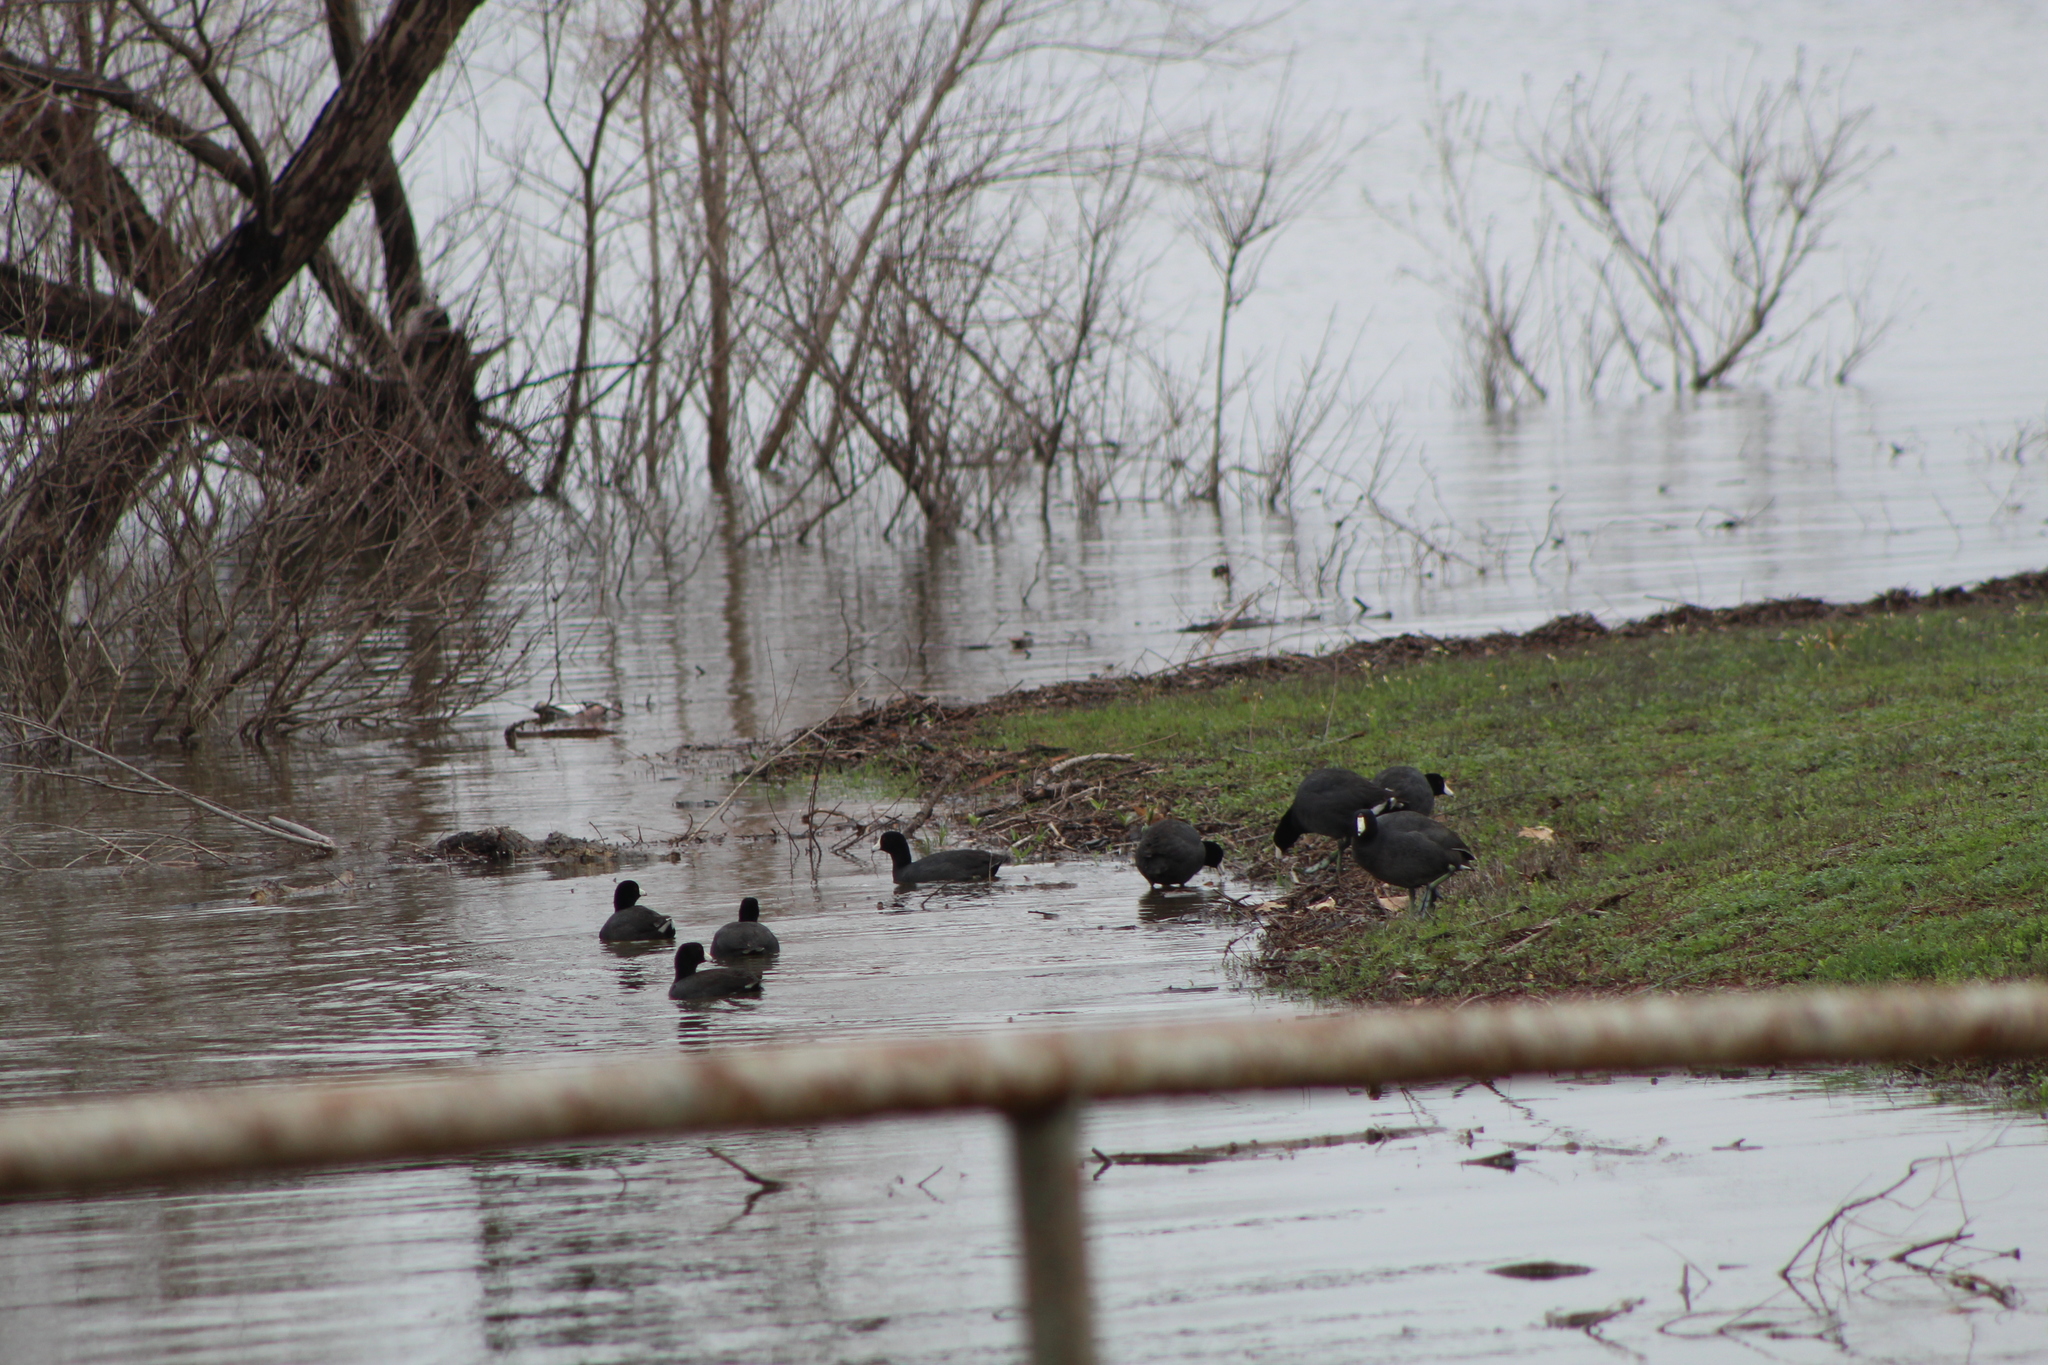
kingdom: Animalia
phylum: Chordata
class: Aves
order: Gruiformes
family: Rallidae
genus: Fulica
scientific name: Fulica americana
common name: American coot
